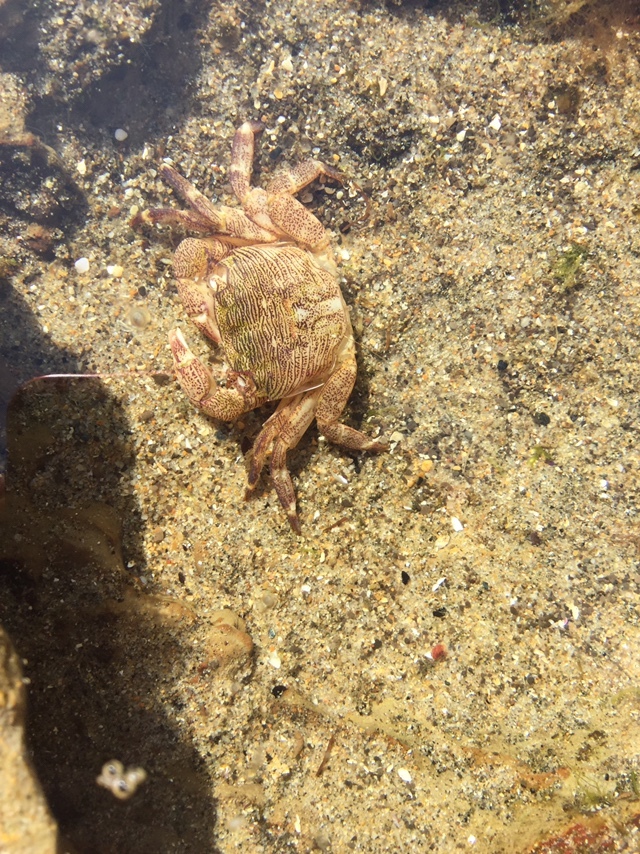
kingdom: Animalia
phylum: Arthropoda
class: Malacostraca
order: Decapoda
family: Grapsidae
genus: Pachygrapsus
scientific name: Pachygrapsus crassipes
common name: Striped shore crab
